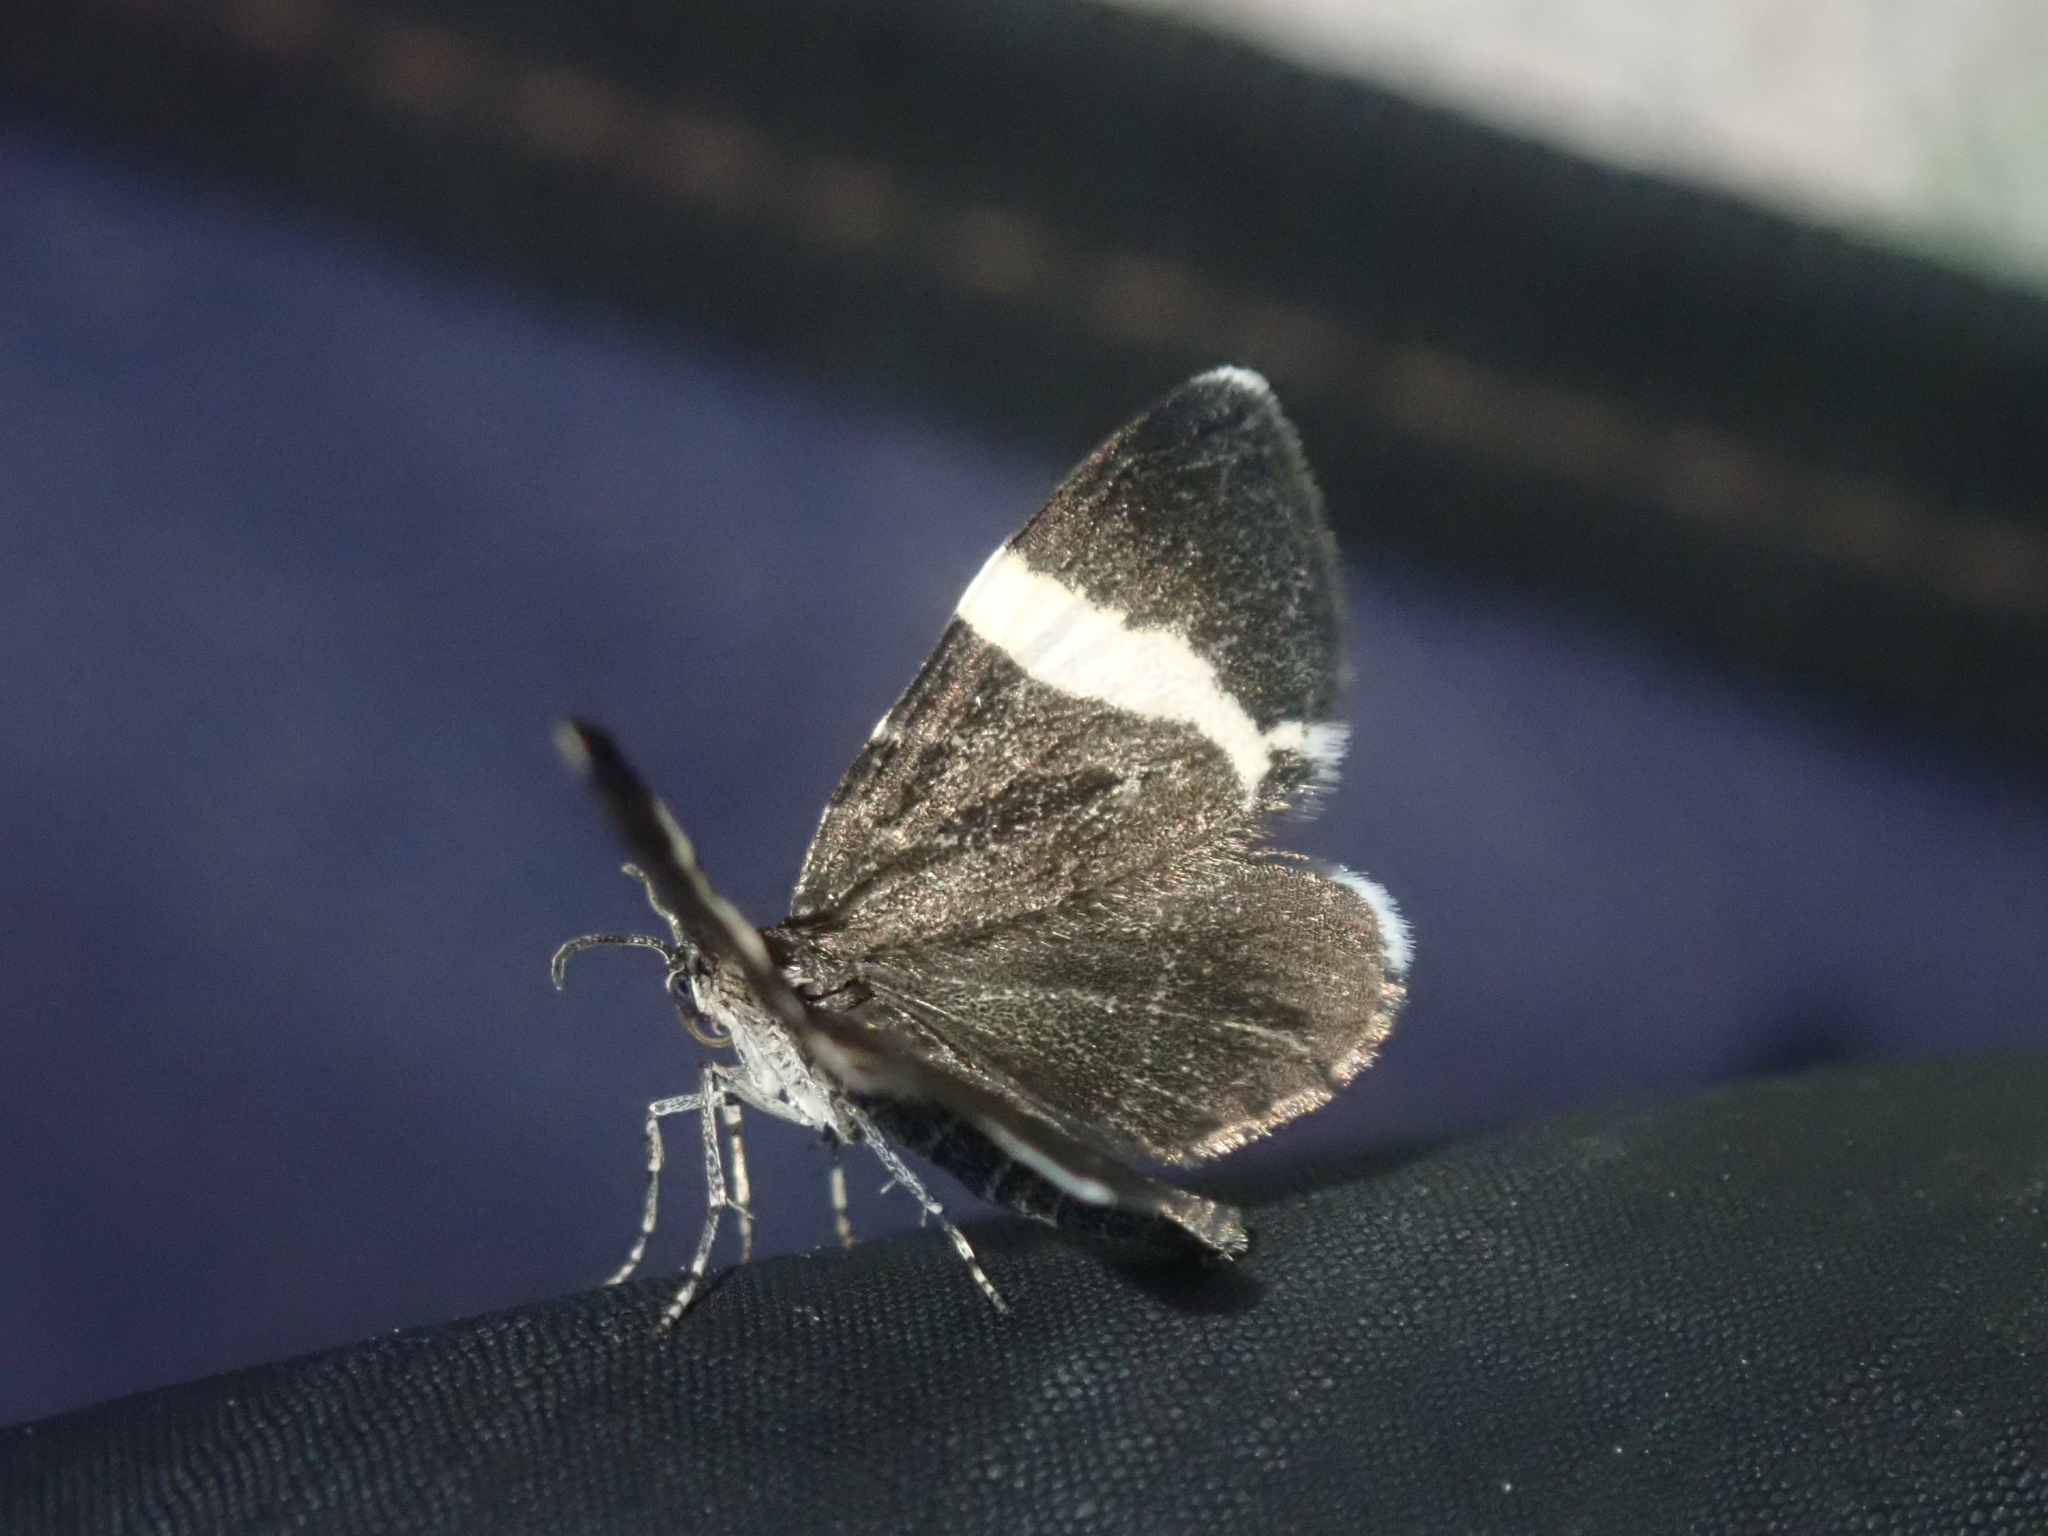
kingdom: Animalia
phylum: Arthropoda
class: Insecta
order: Lepidoptera
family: Geometridae
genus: Trichodezia
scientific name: Trichodezia albovittata
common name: White striped black
